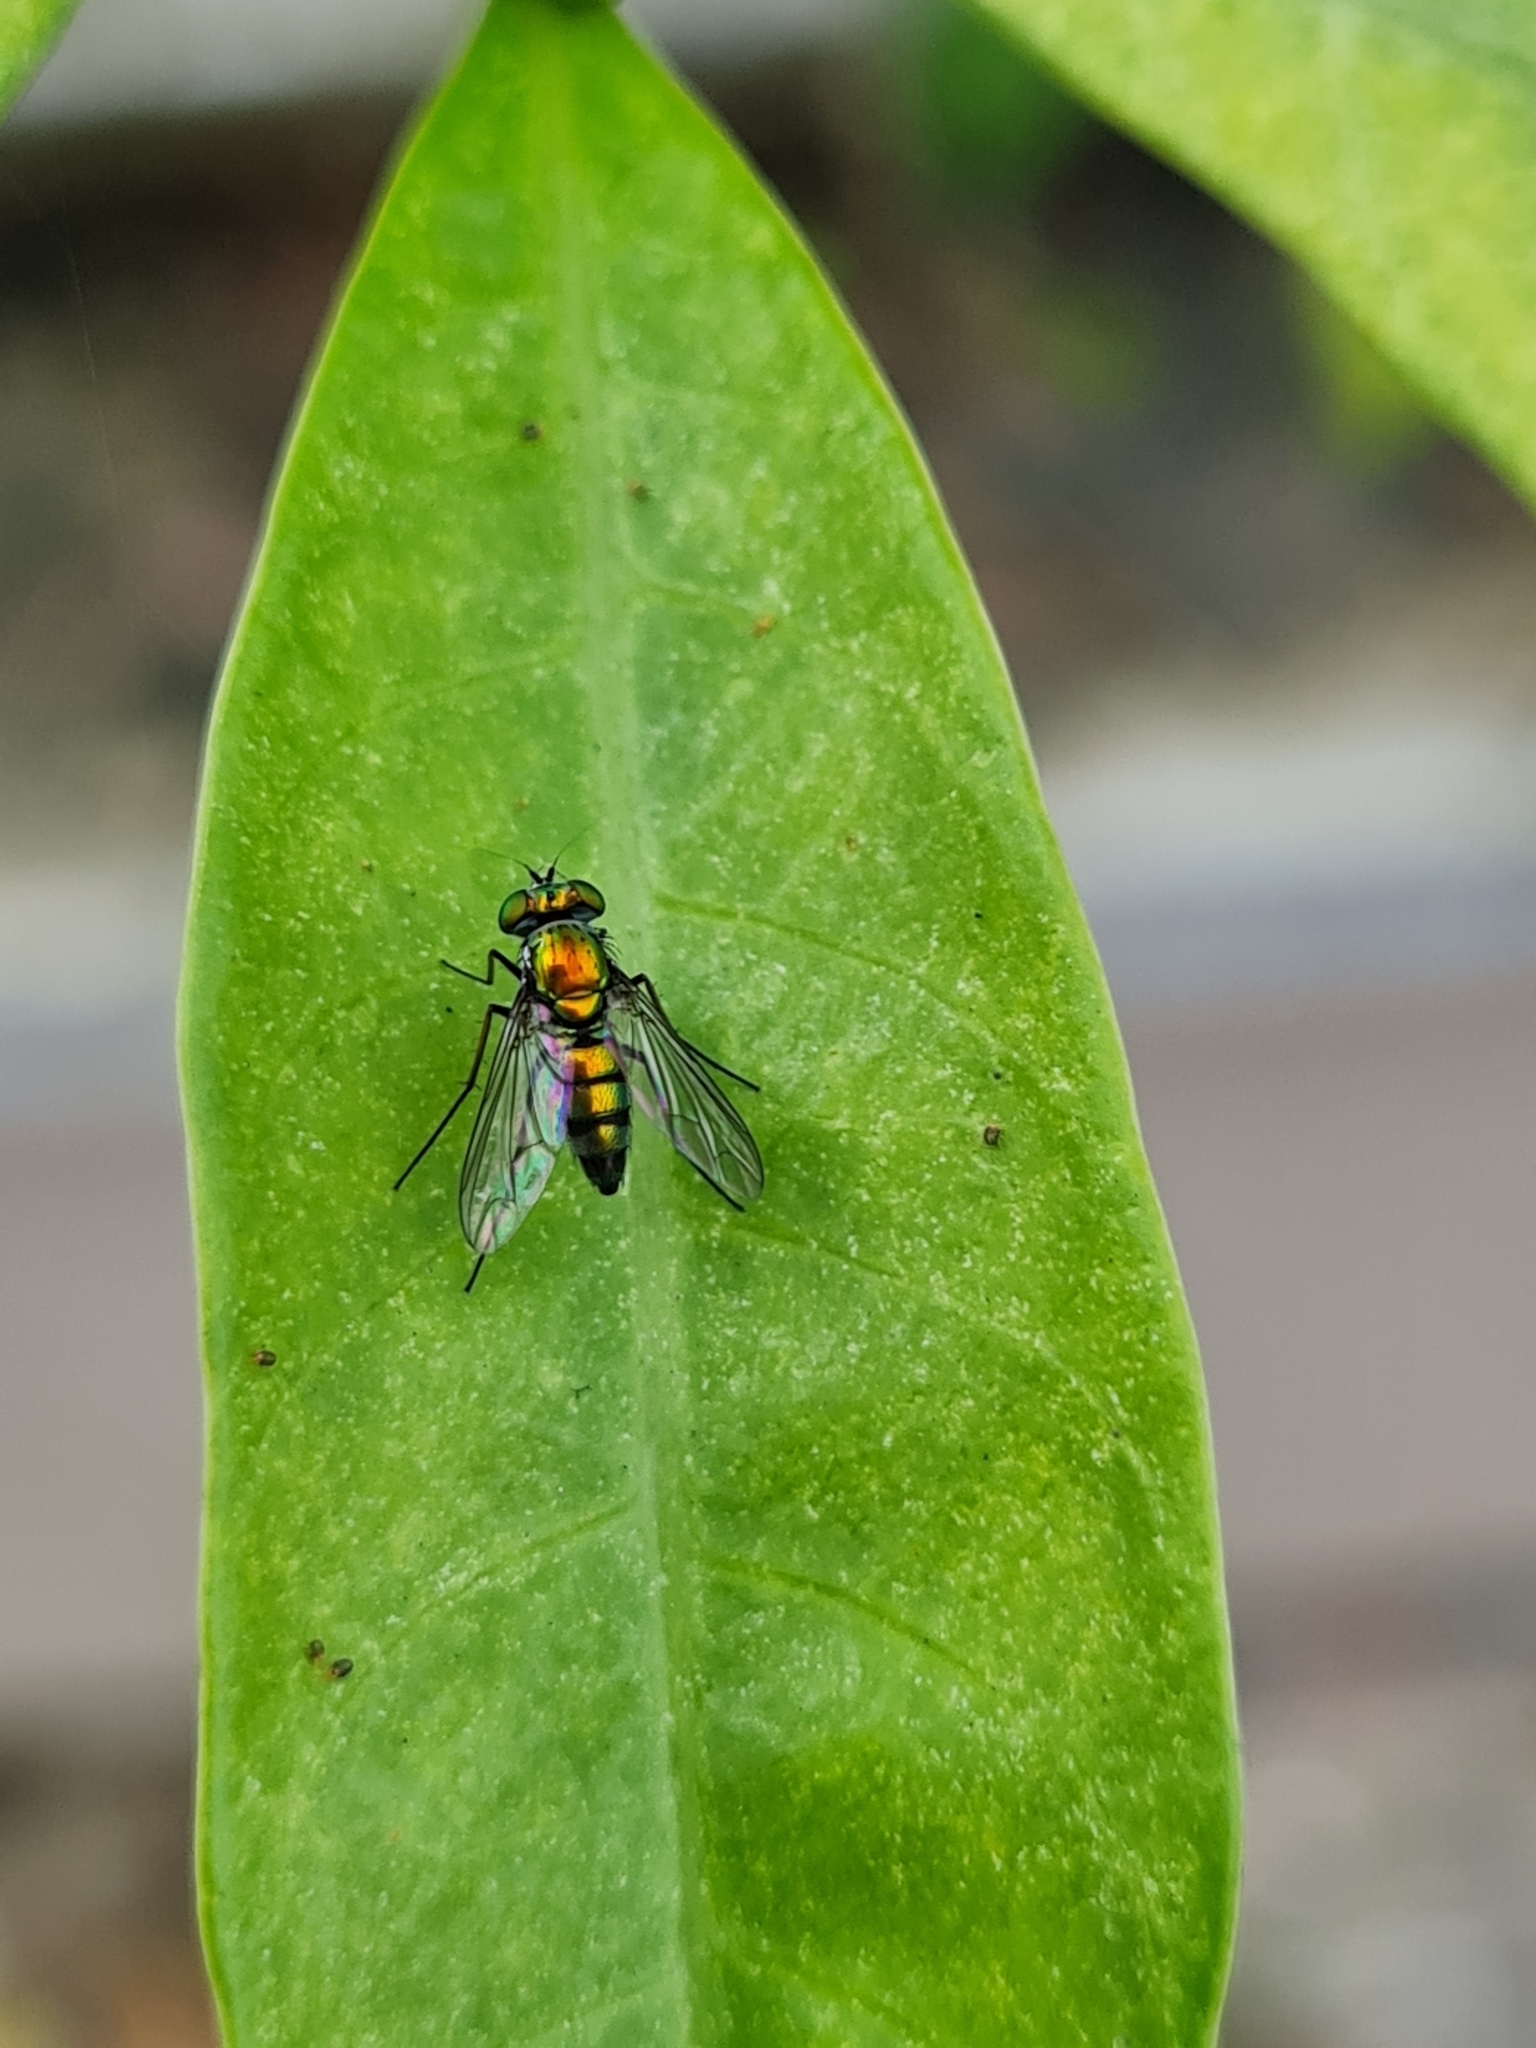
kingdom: Animalia
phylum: Arthropoda
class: Insecta
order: Diptera
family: Dolichopodidae
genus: Condylostylus
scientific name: Condylostylus longicornis
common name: Long-legged fly
